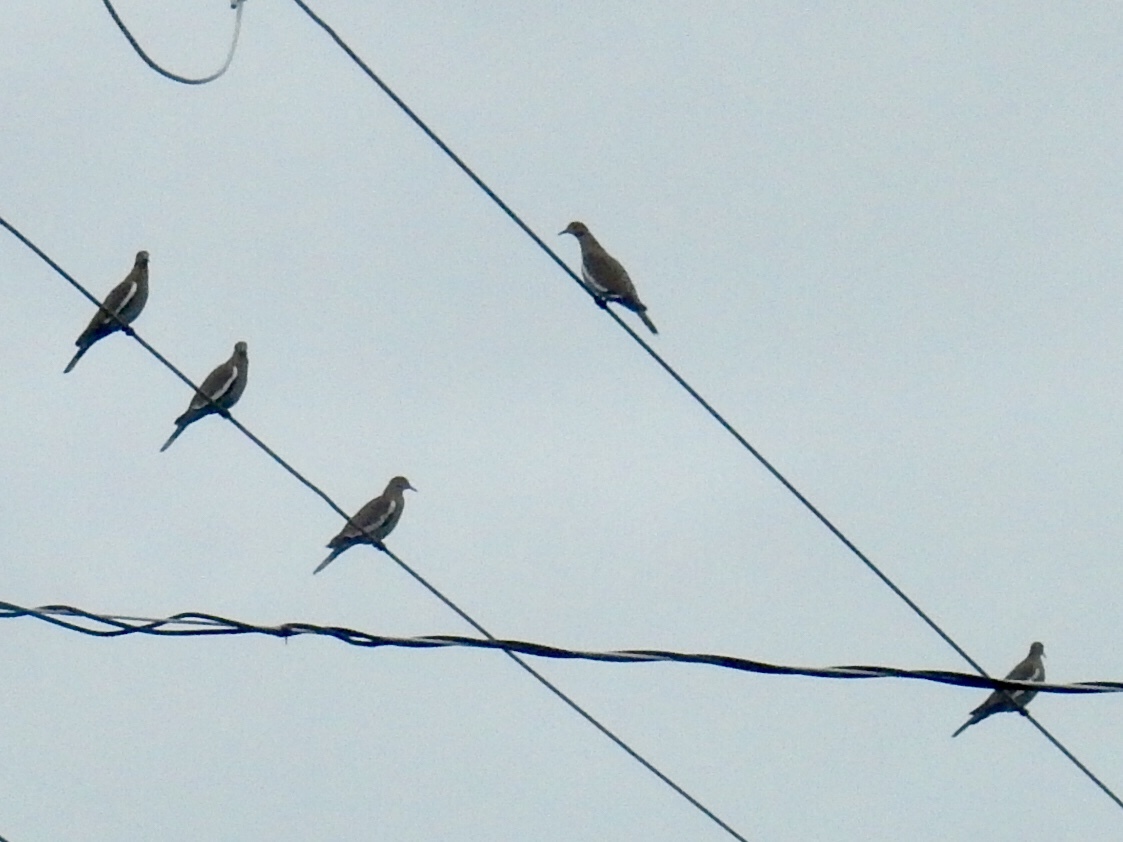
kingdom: Animalia
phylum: Chordata
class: Aves
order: Columbiformes
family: Columbidae
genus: Zenaida
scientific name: Zenaida asiatica
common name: White-winged dove
